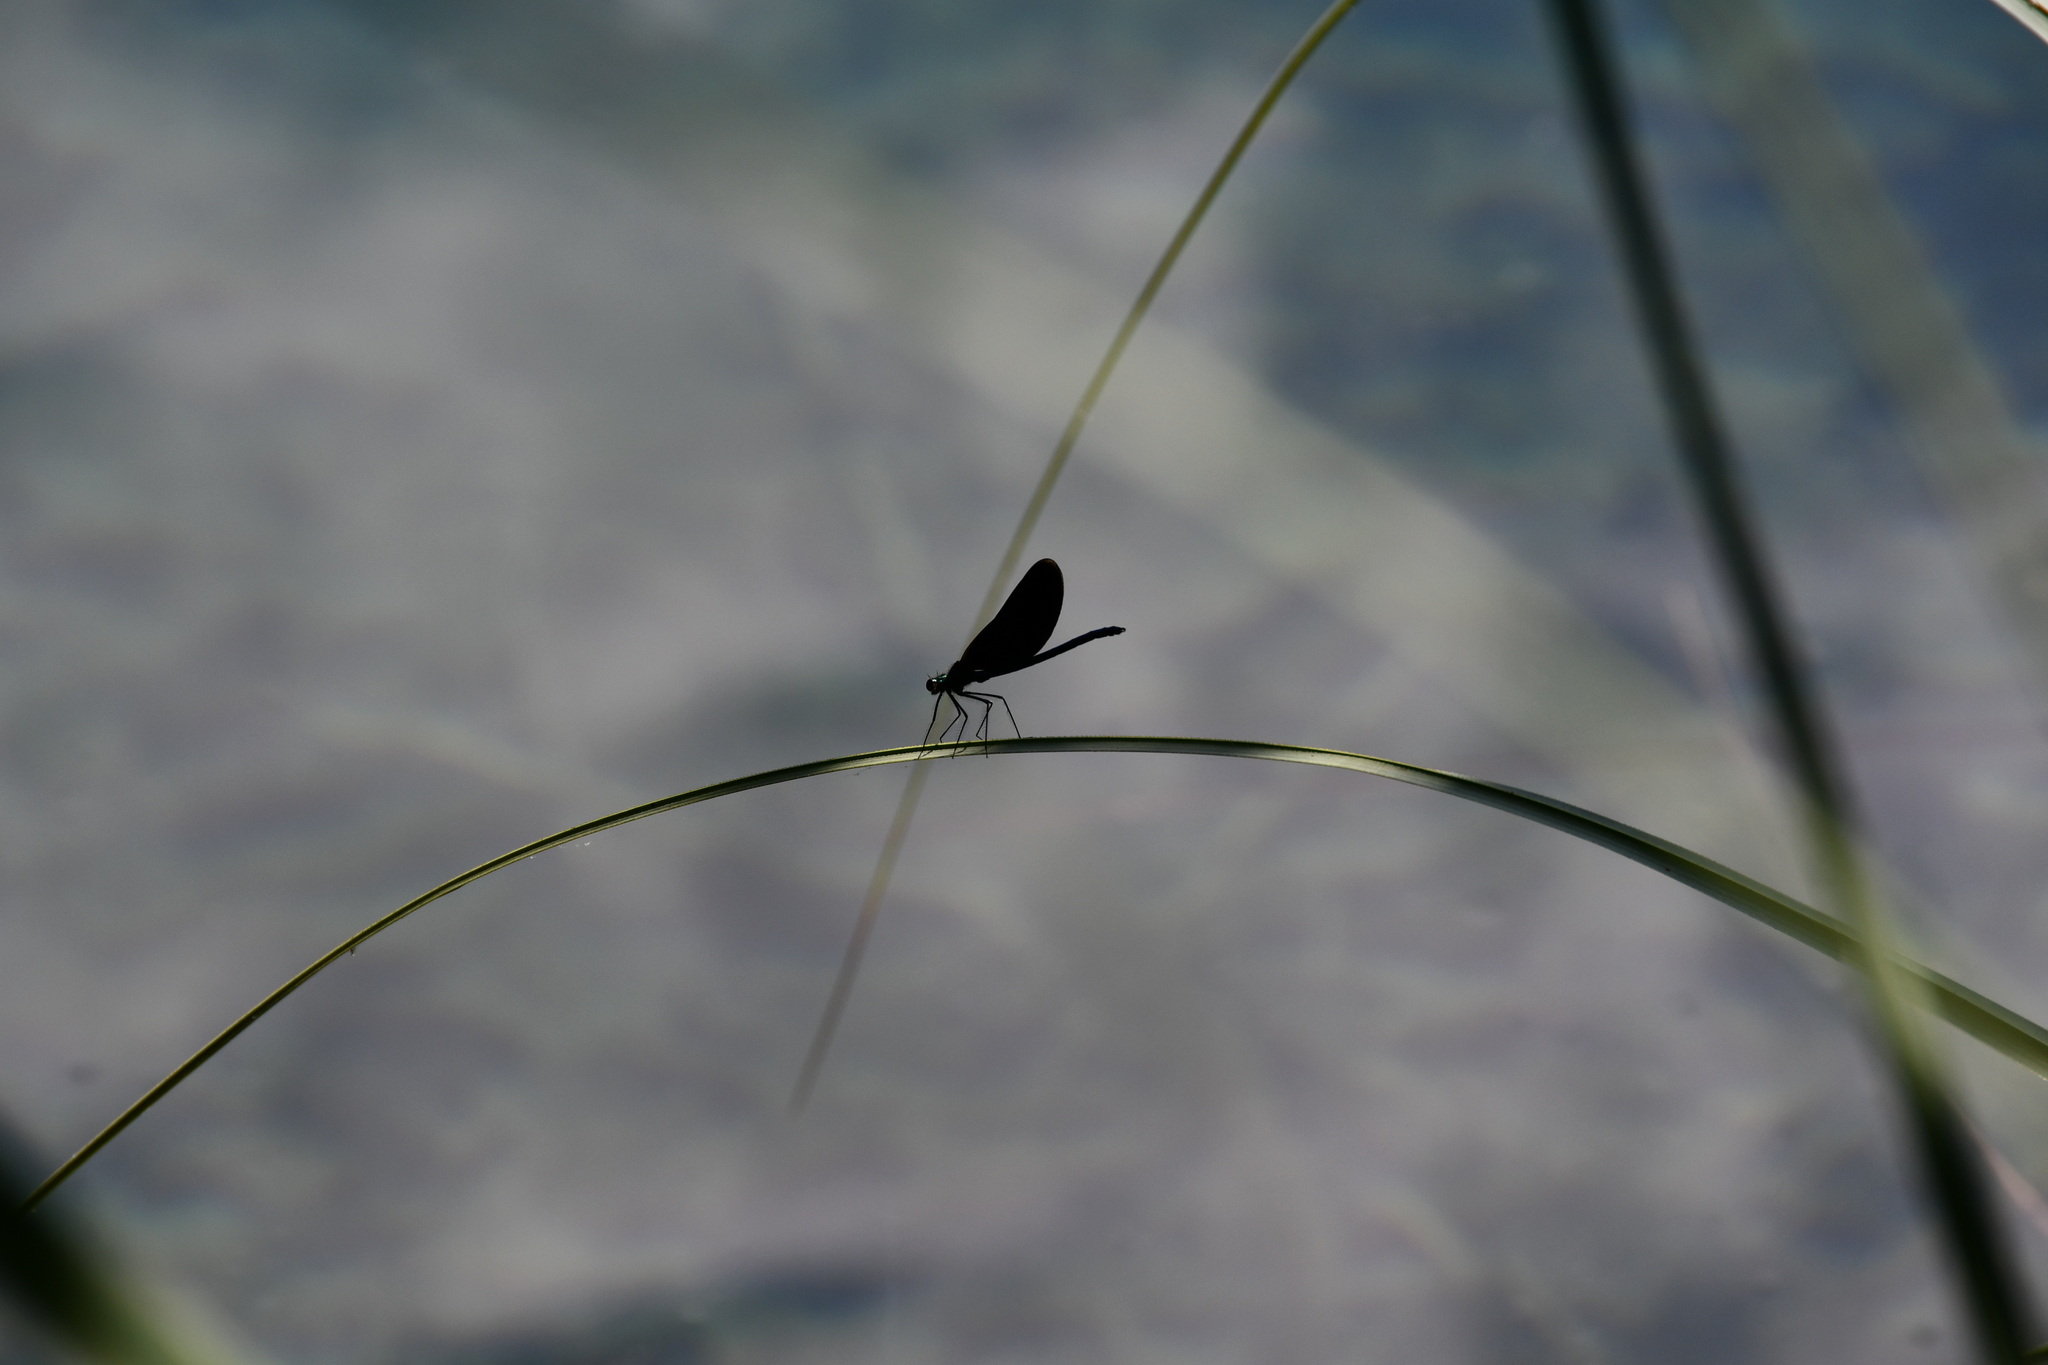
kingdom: Animalia
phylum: Arthropoda
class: Insecta
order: Odonata
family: Calopterygidae
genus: Calopteryx
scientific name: Calopteryx virgo
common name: Beautiful demoiselle
